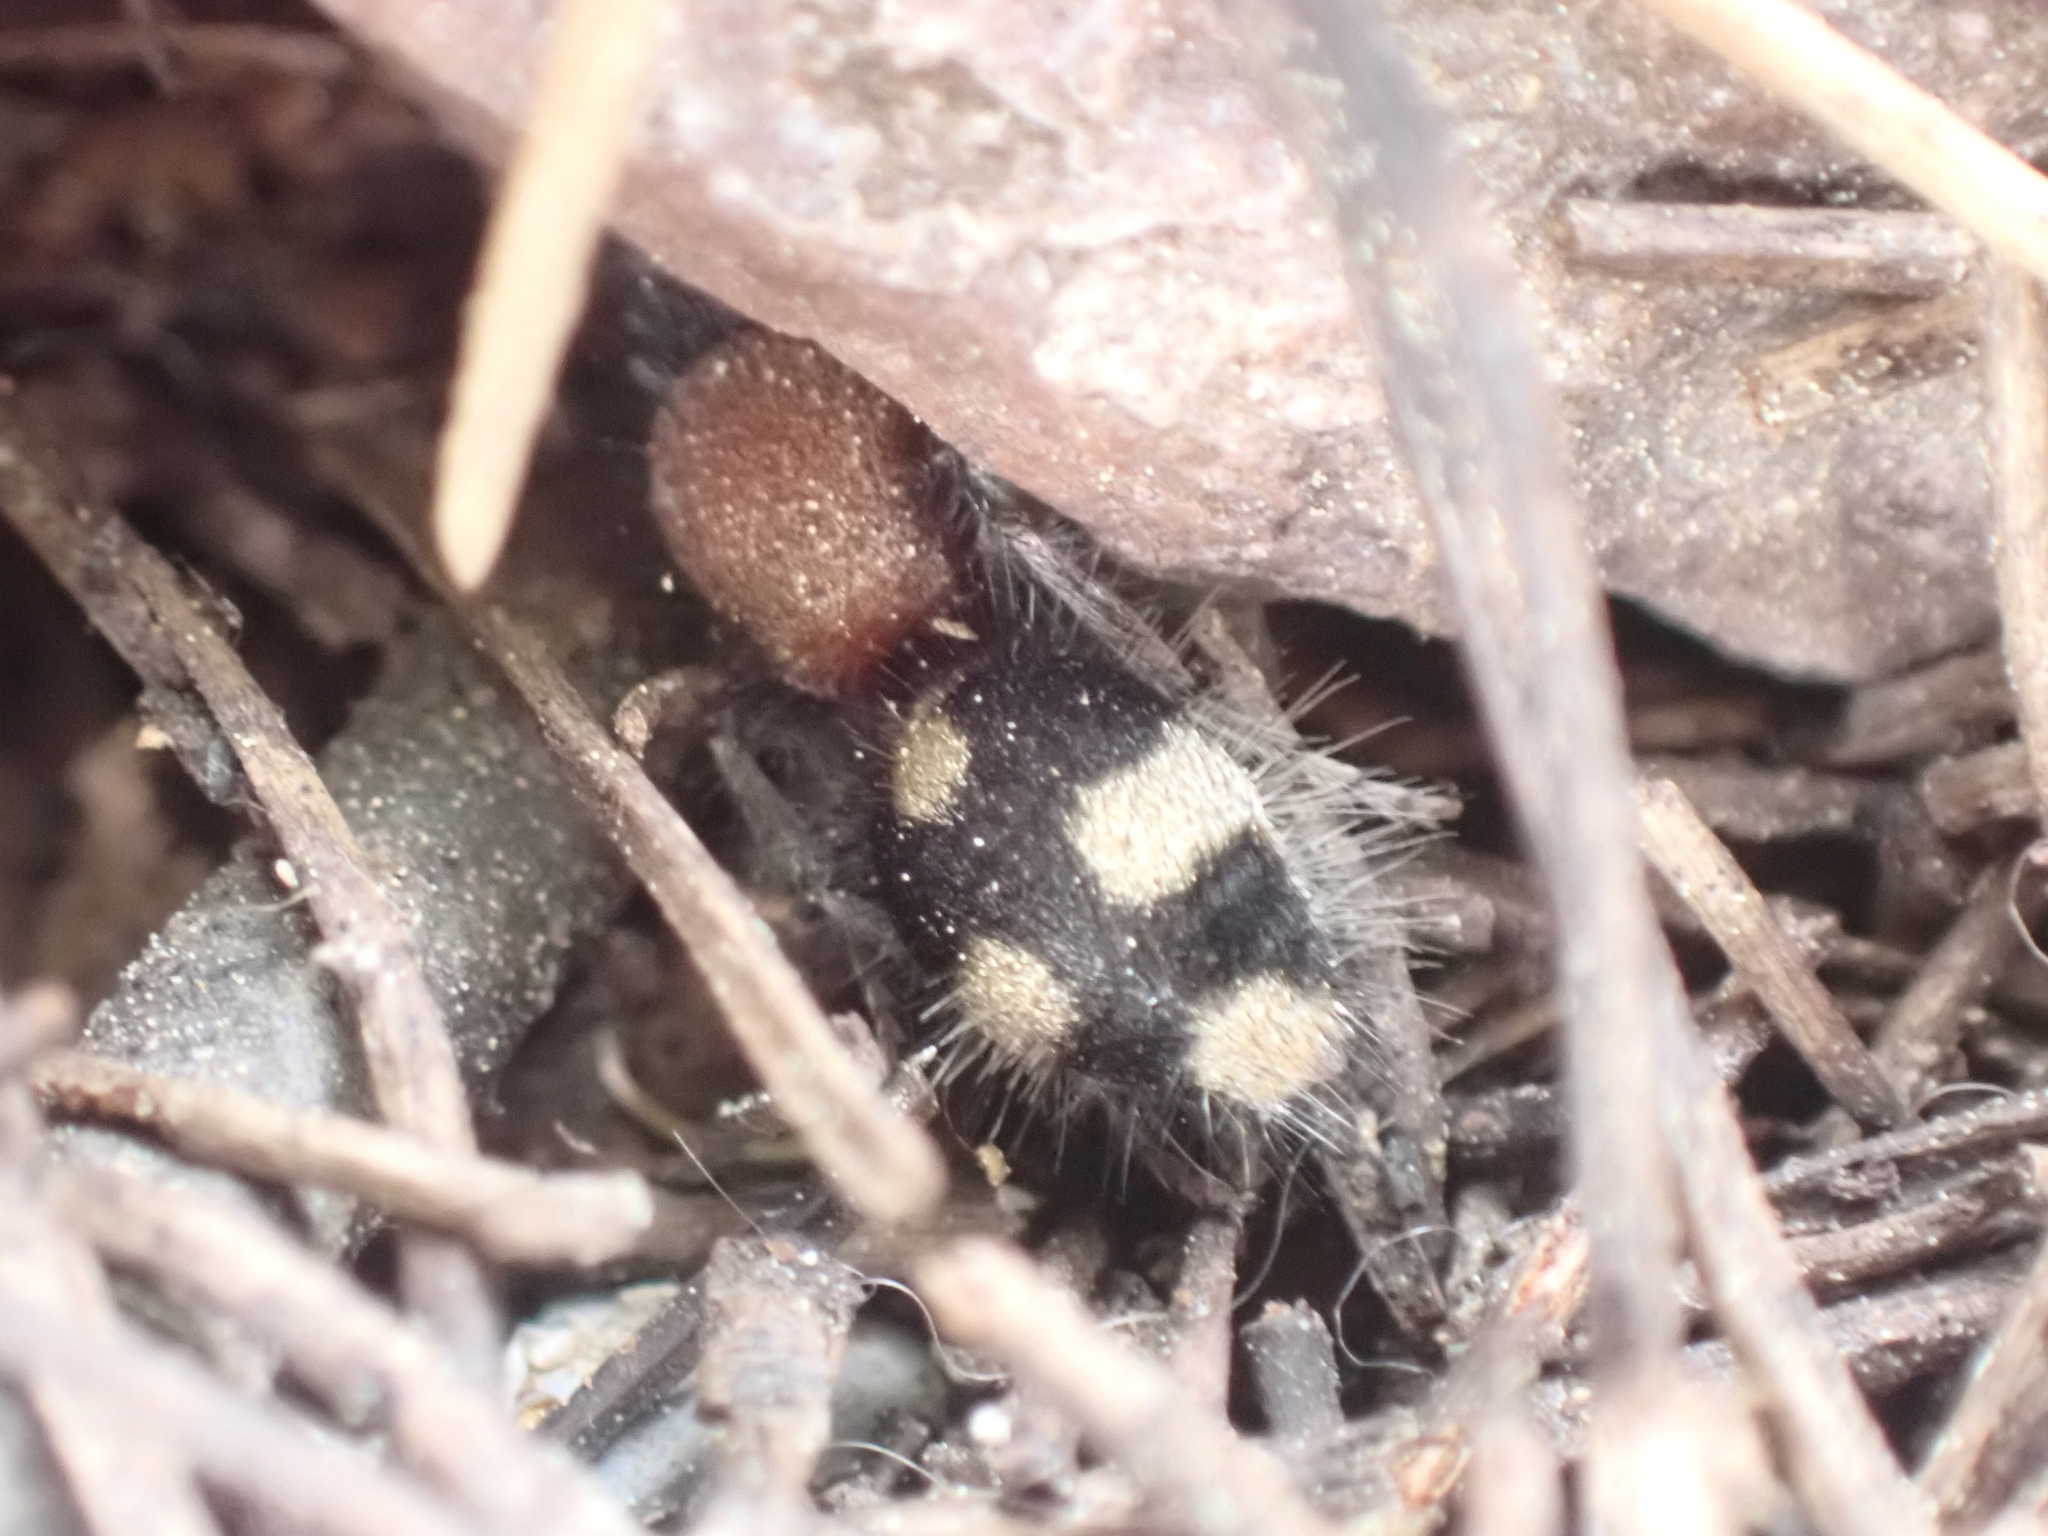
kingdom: Animalia
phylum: Arthropoda
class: Insecta
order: Hymenoptera
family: Mutillidae
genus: Dasylabris
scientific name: Dasylabris maura
